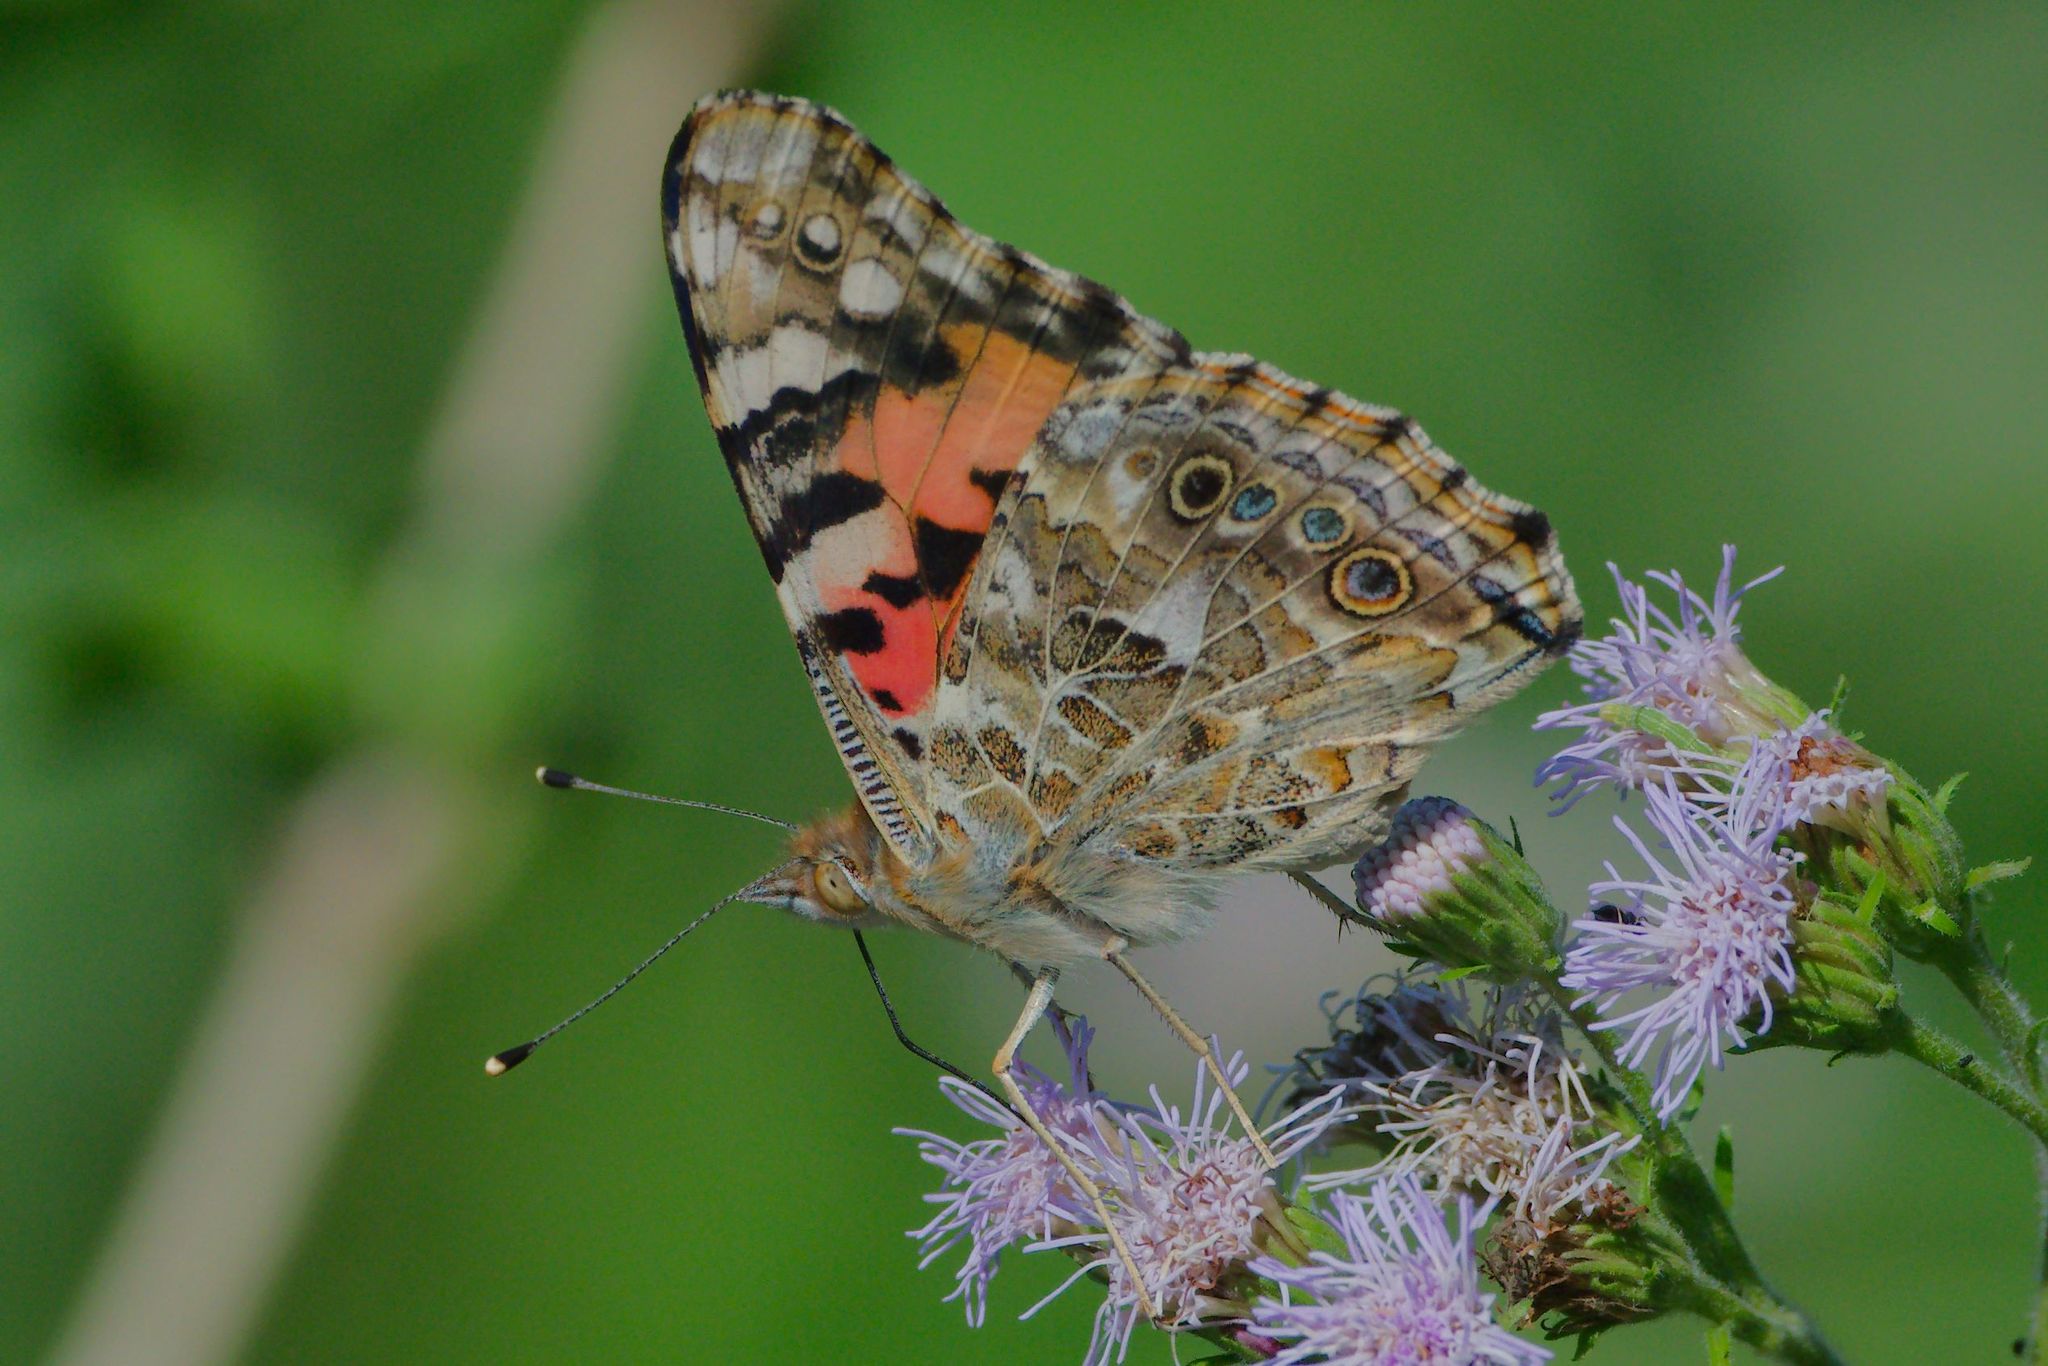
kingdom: Animalia
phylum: Arthropoda
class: Insecta
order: Lepidoptera
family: Nymphalidae
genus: Vanessa
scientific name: Vanessa cardui
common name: Painted lady
